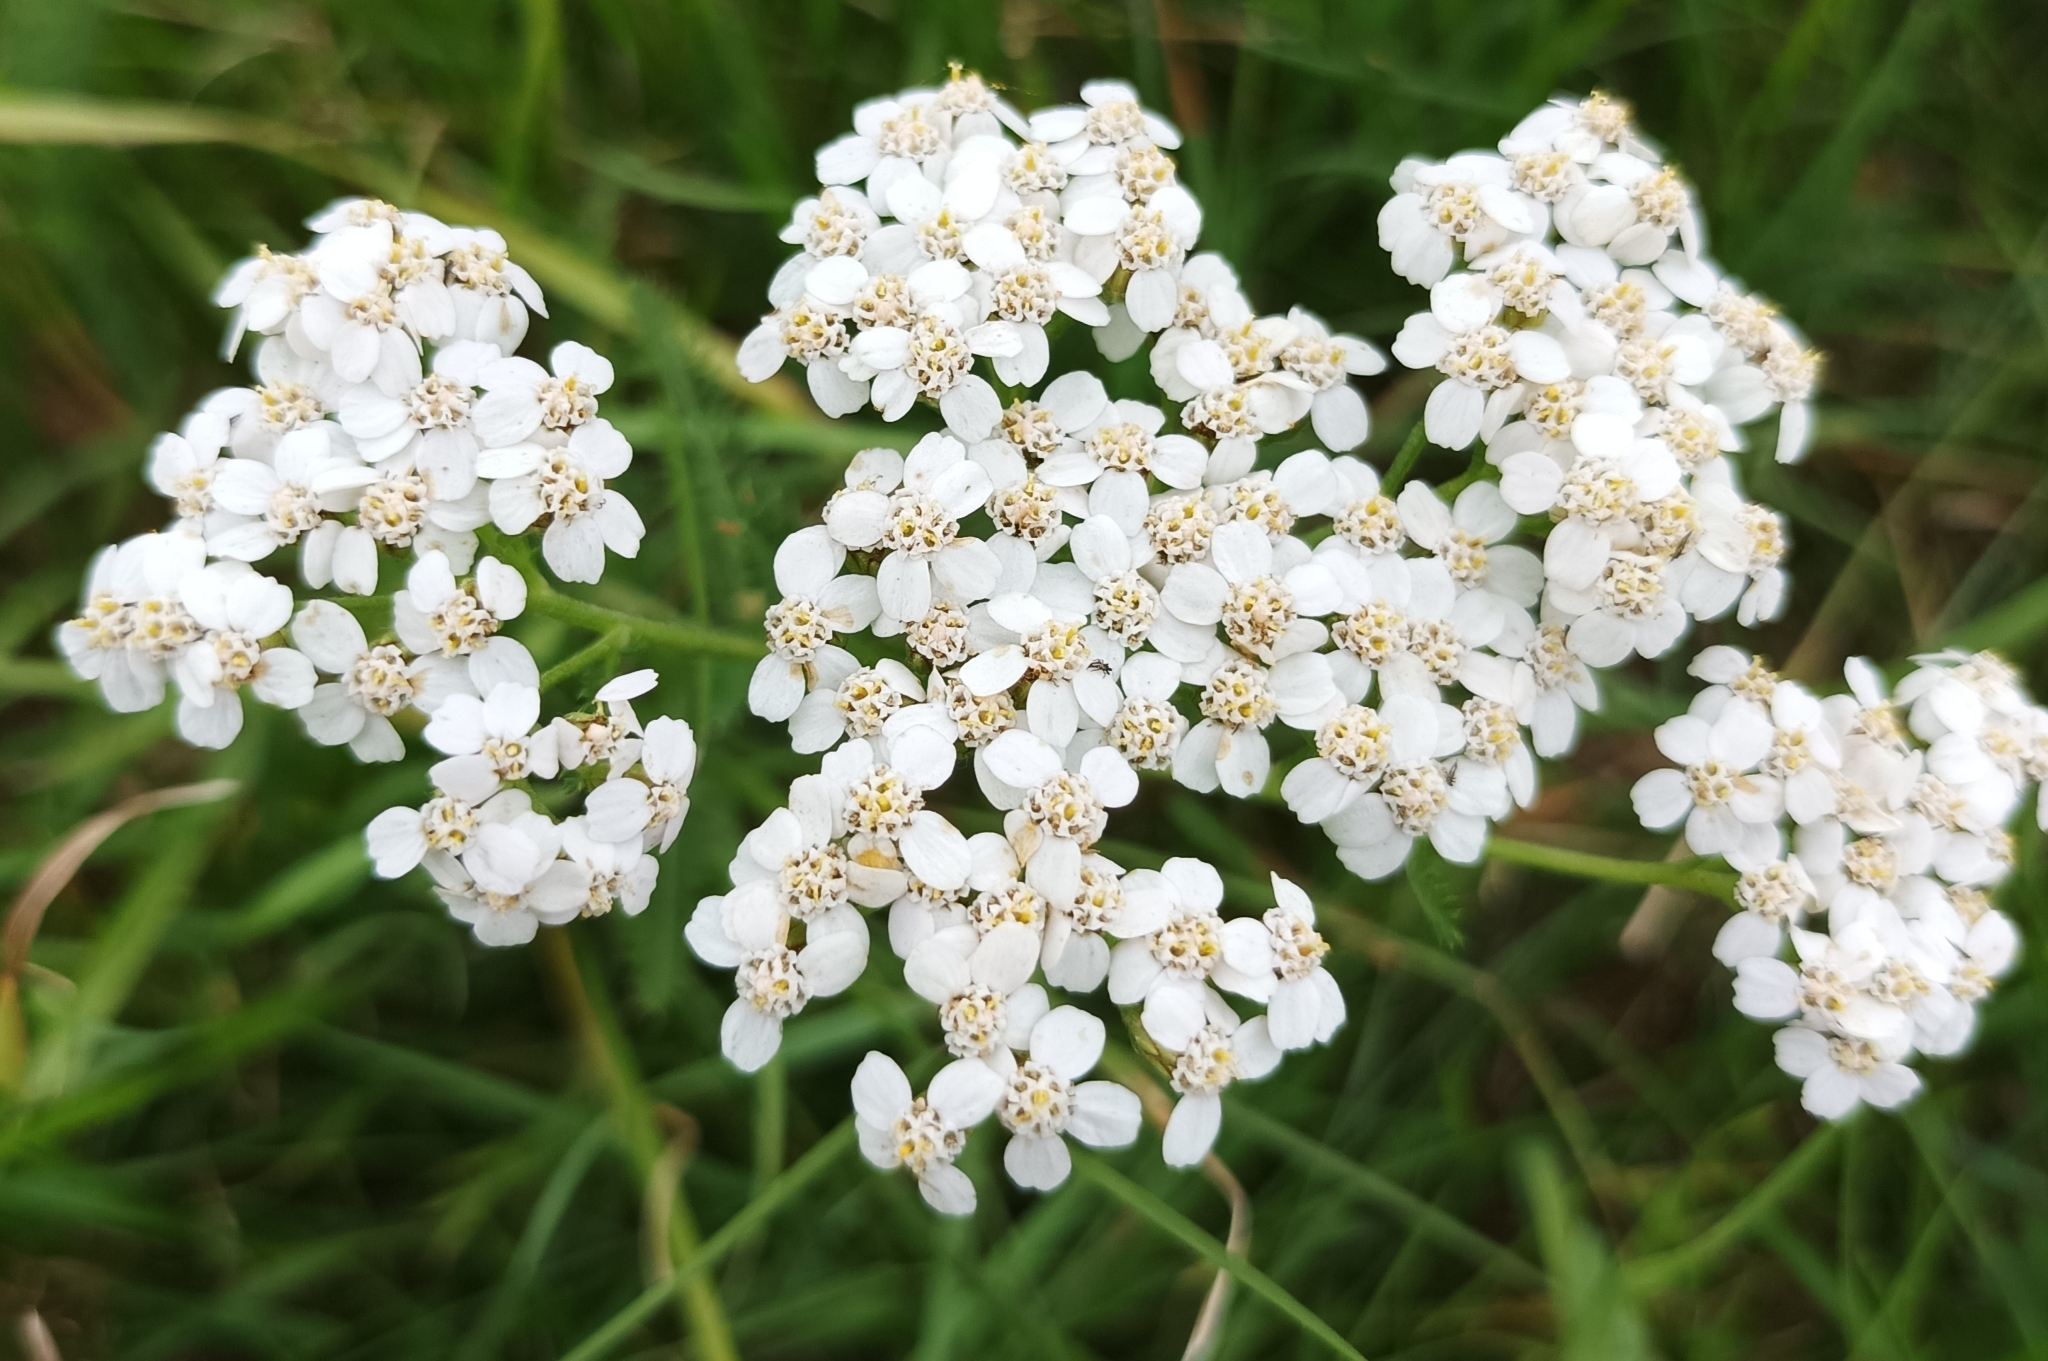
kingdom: Plantae
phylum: Tracheophyta
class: Magnoliopsida
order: Asterales
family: Asteraceae
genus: Achillea
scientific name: Achillea millefolium
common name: Yarrow
